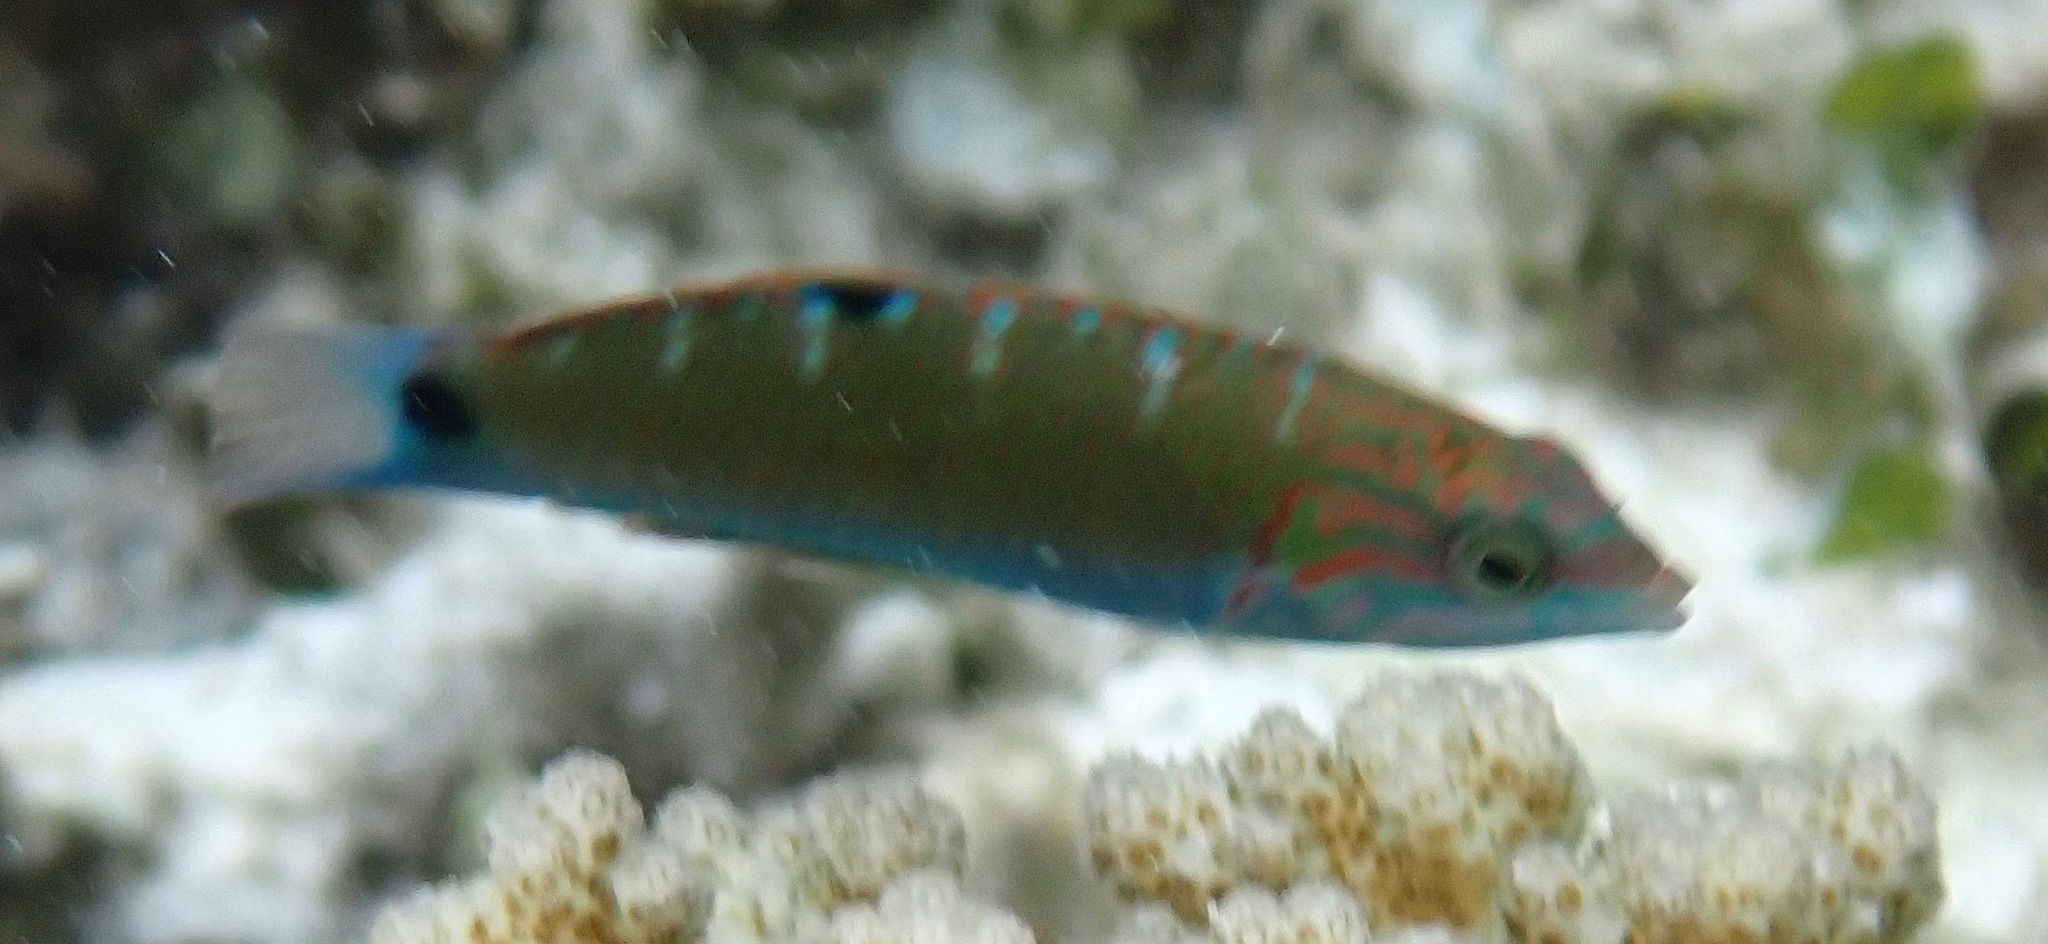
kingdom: Animalia
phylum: Chordata
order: Perciformes
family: Labridae
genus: Thalassoma
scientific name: Thalassoma lunare
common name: Blue wrasse
